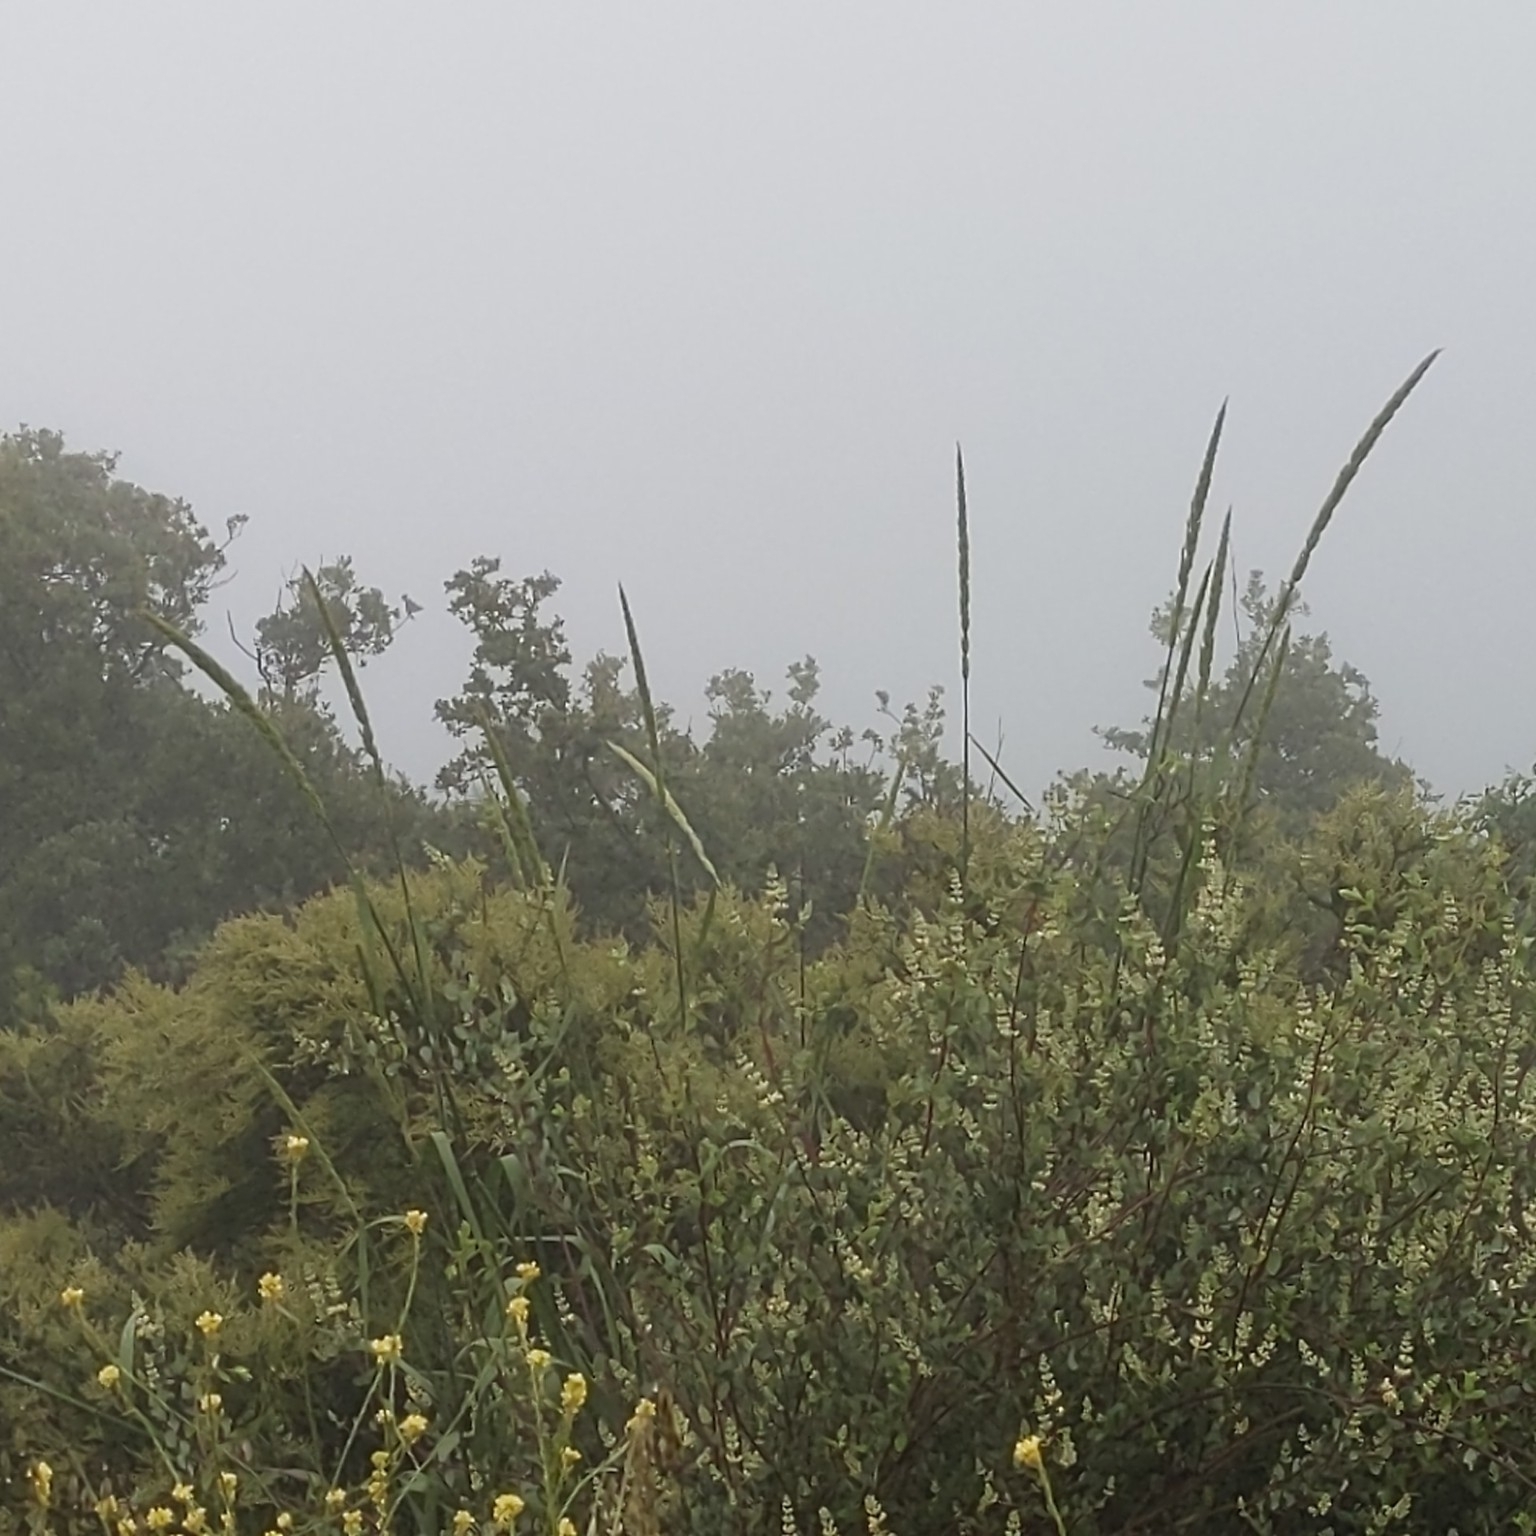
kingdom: Plantae
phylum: Tracheophyta
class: Liliopsida
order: Poales
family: Poaceae
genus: Leymus
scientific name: Leymus condensatus
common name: Giant wild rye
